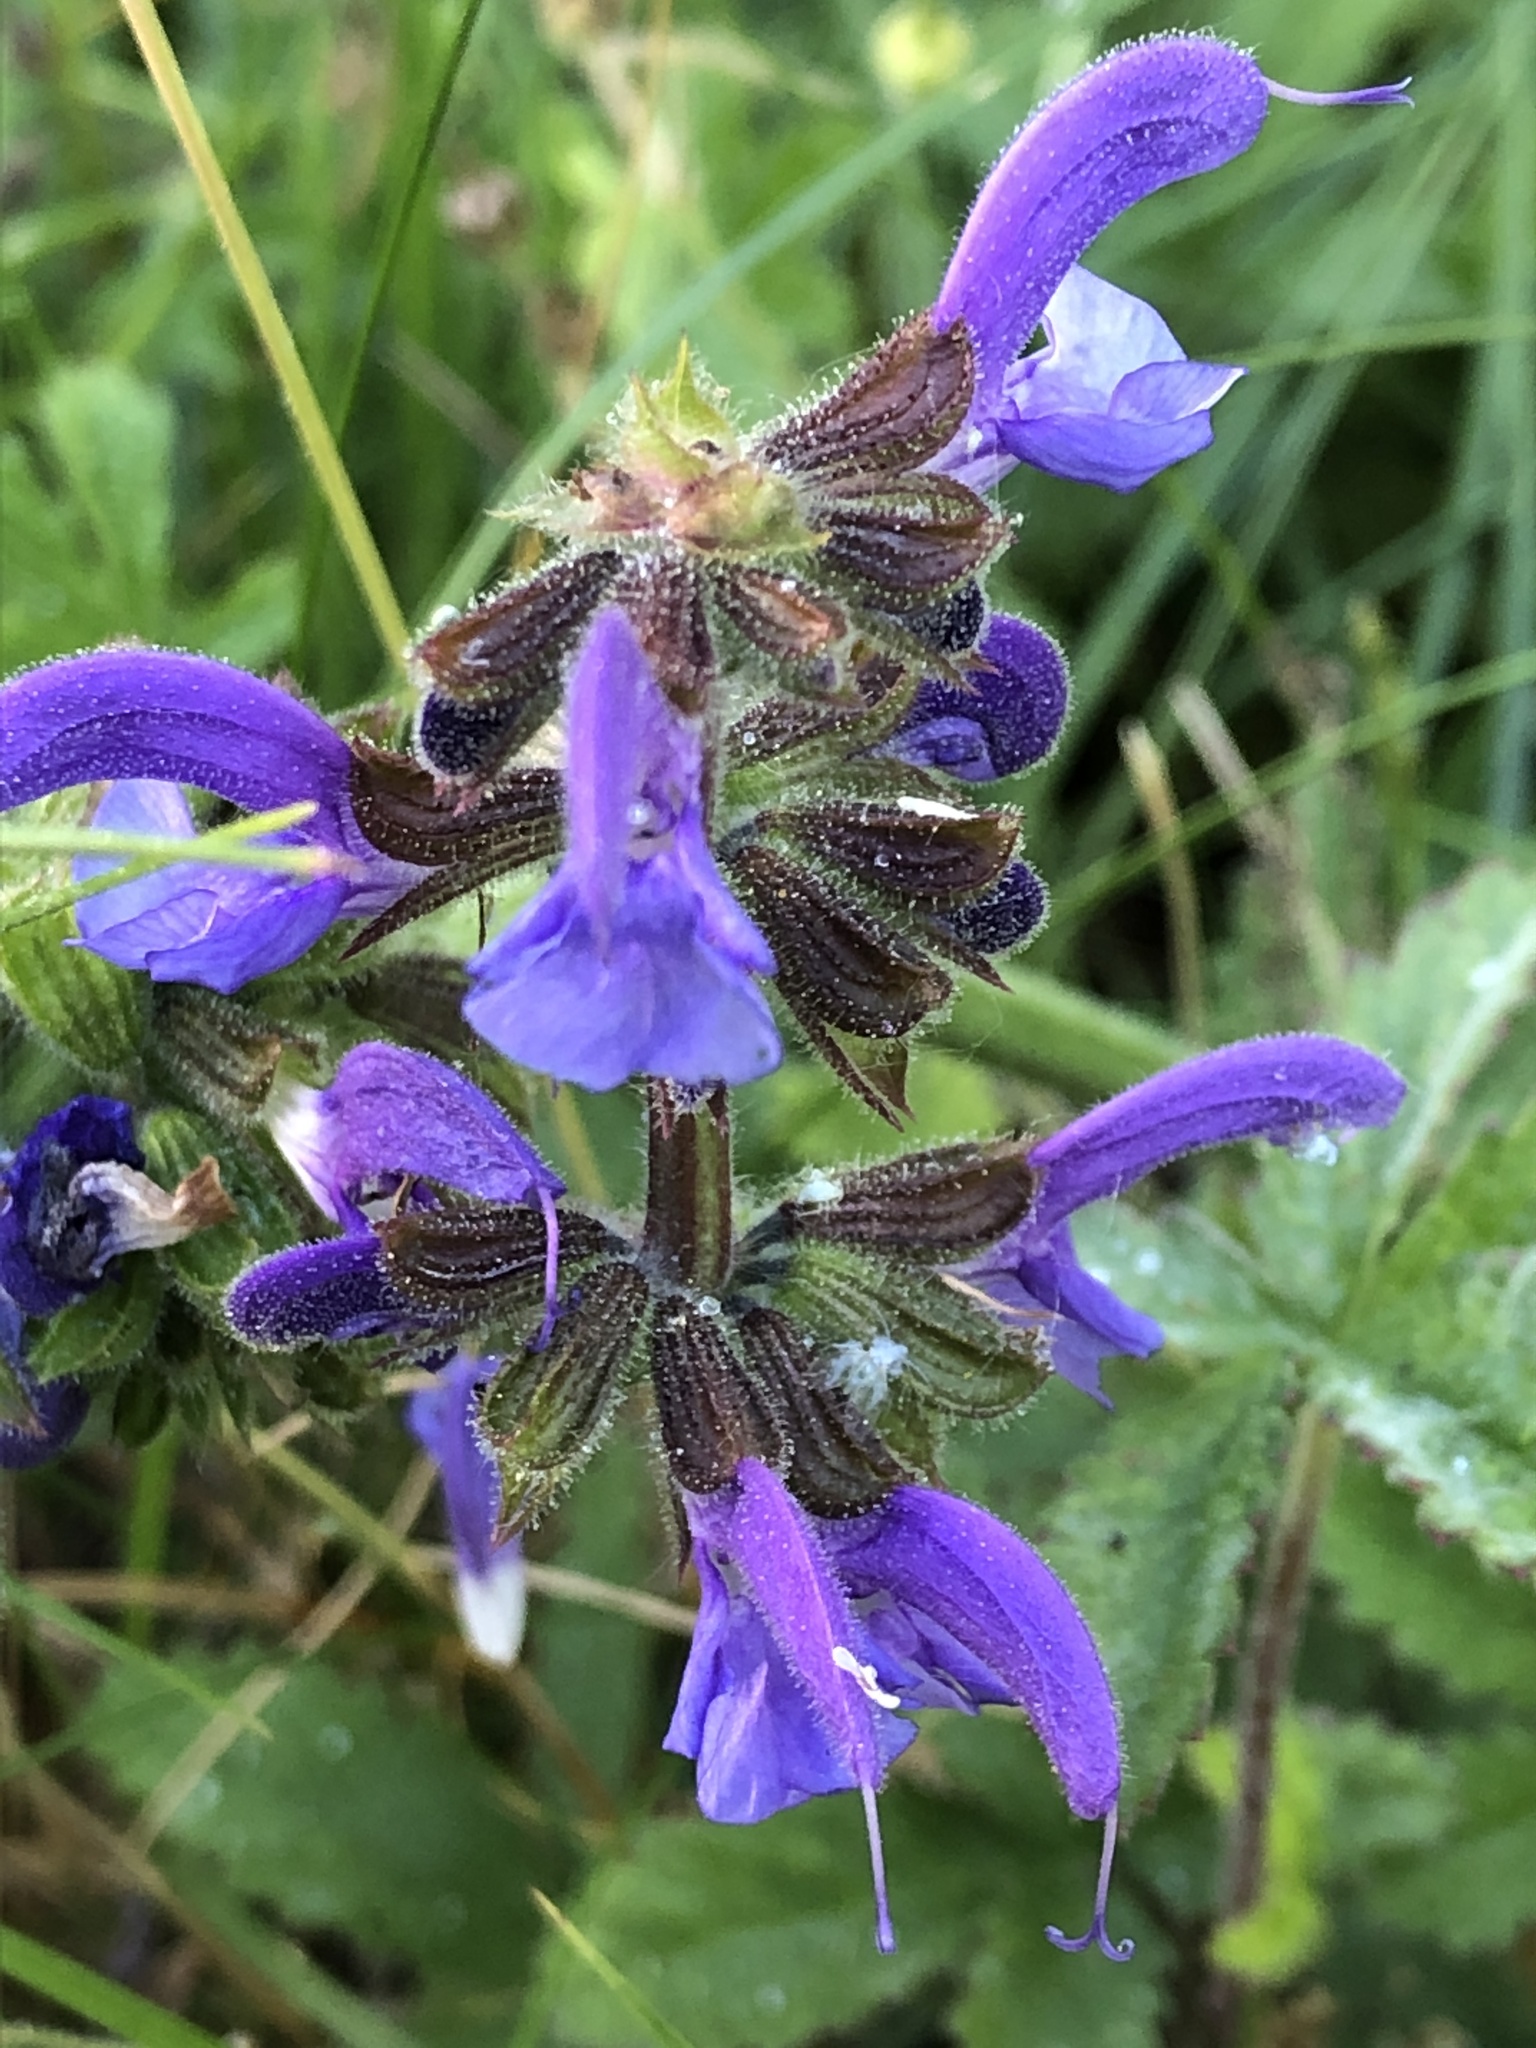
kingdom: Plantae
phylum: Tracheophyta
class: Magnoliopsida
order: Lamiales
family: Lamiaceae
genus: Salvia
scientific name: Salvia pratensis
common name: Meadow sage
